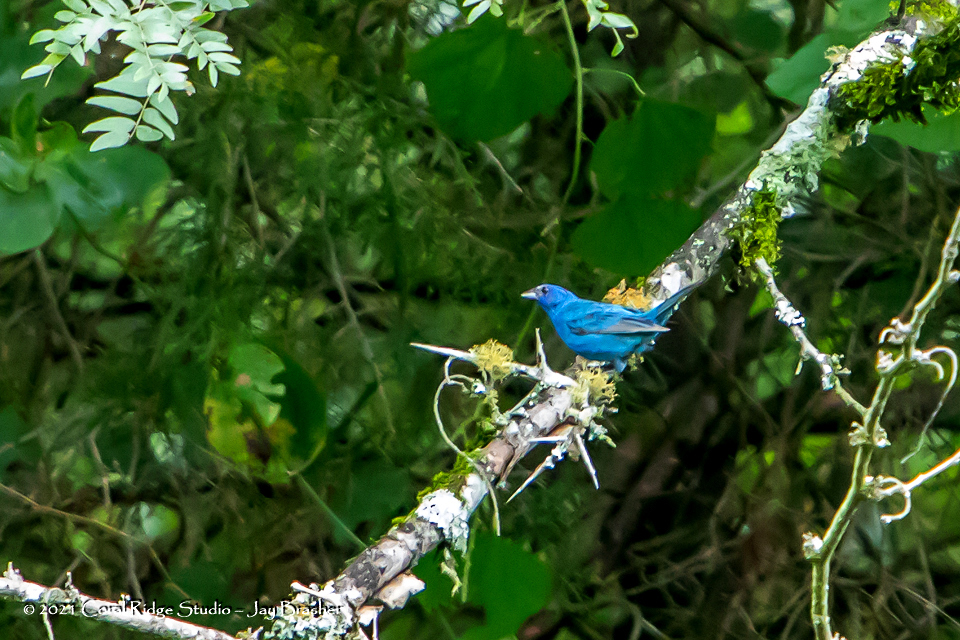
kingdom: Animalia
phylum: Chordata
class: Aves
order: Passeriformes
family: Cardinalidae
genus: Passerina
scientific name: Passerina cyanea
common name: Indigo bunting
